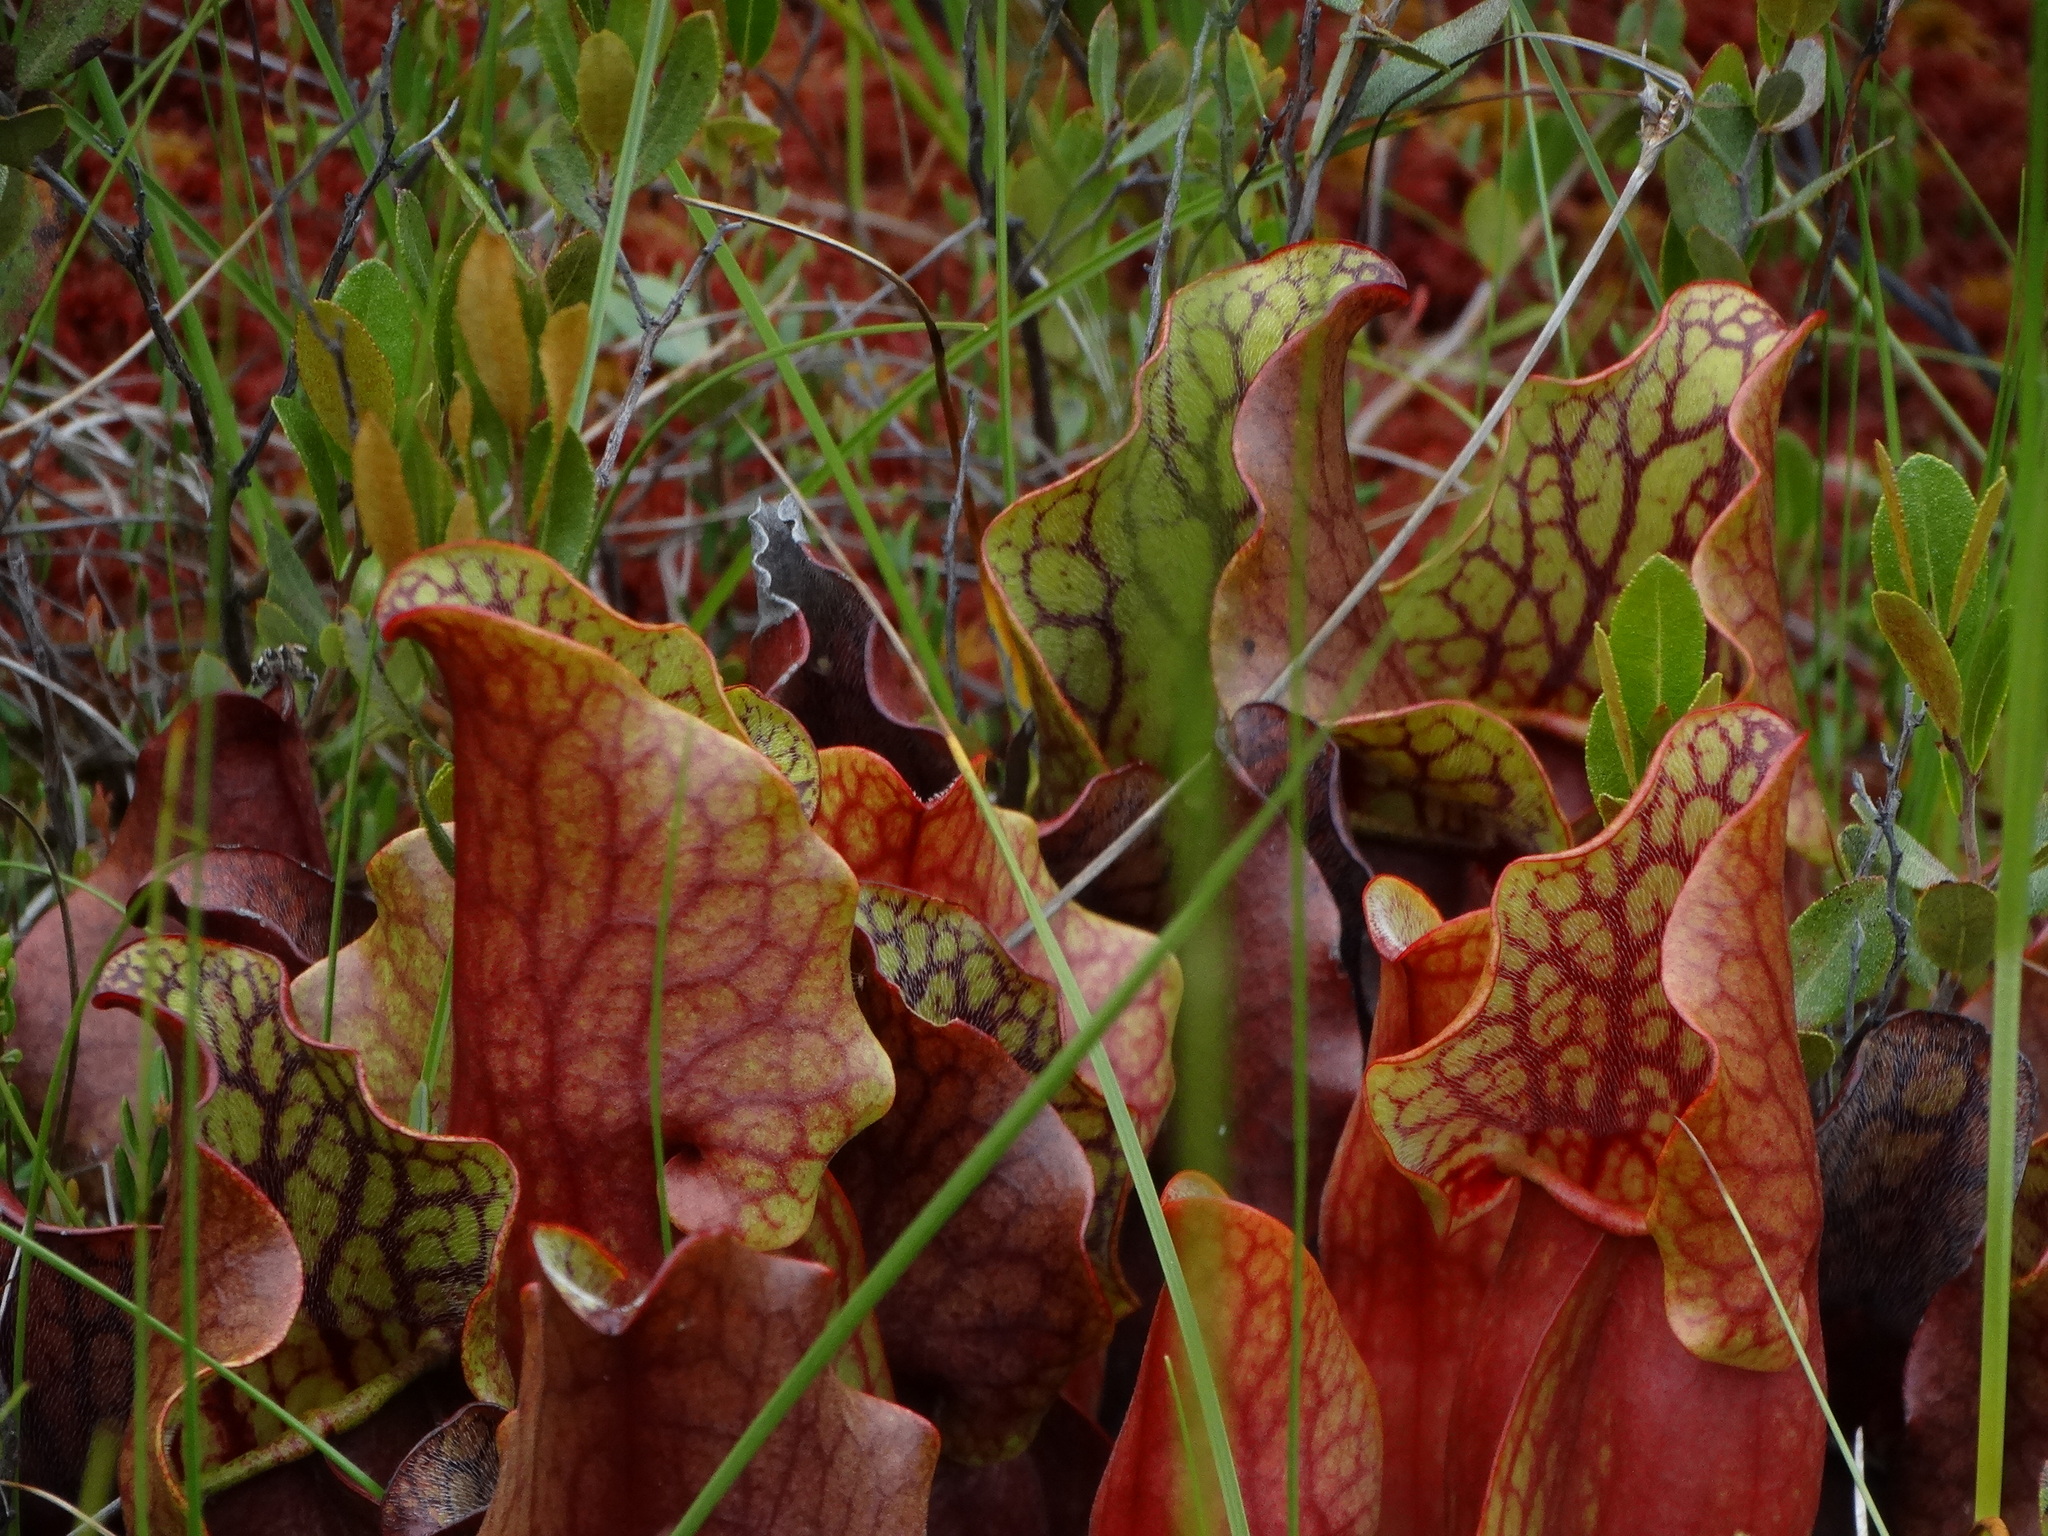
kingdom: Plantae
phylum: Tracheophyta
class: Magnoliopsida
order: Ericales
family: Sarraceniaceae
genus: Sarracenia
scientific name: Sarracenia purpurea
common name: Pitcherplant
